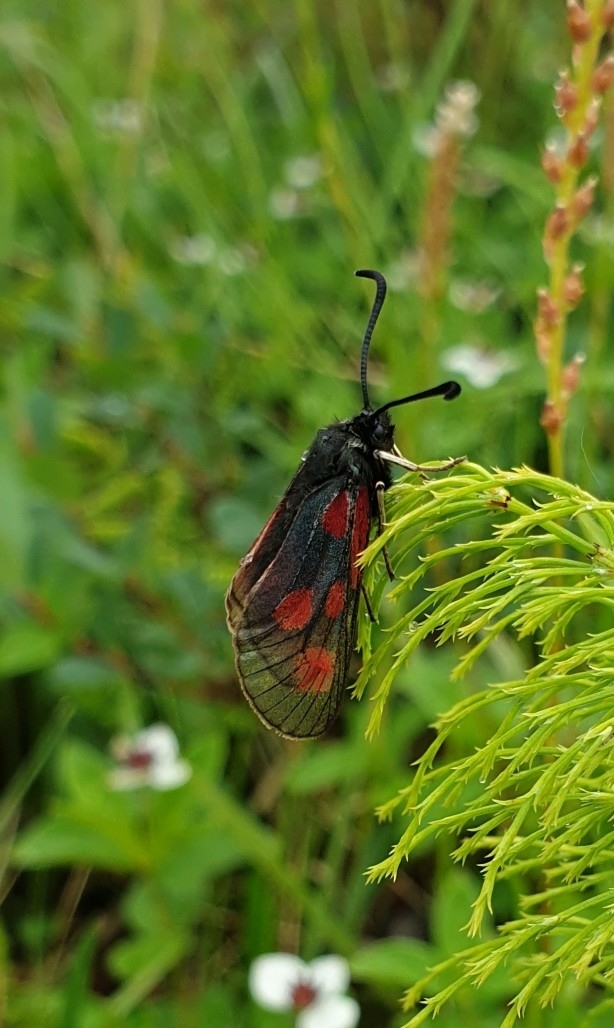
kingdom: Animalia
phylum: Arthropoda
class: Insecta
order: Lepidoptera
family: Zygaenidae
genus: Zygaena
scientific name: Zygaena exulans
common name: Scotch burnet
